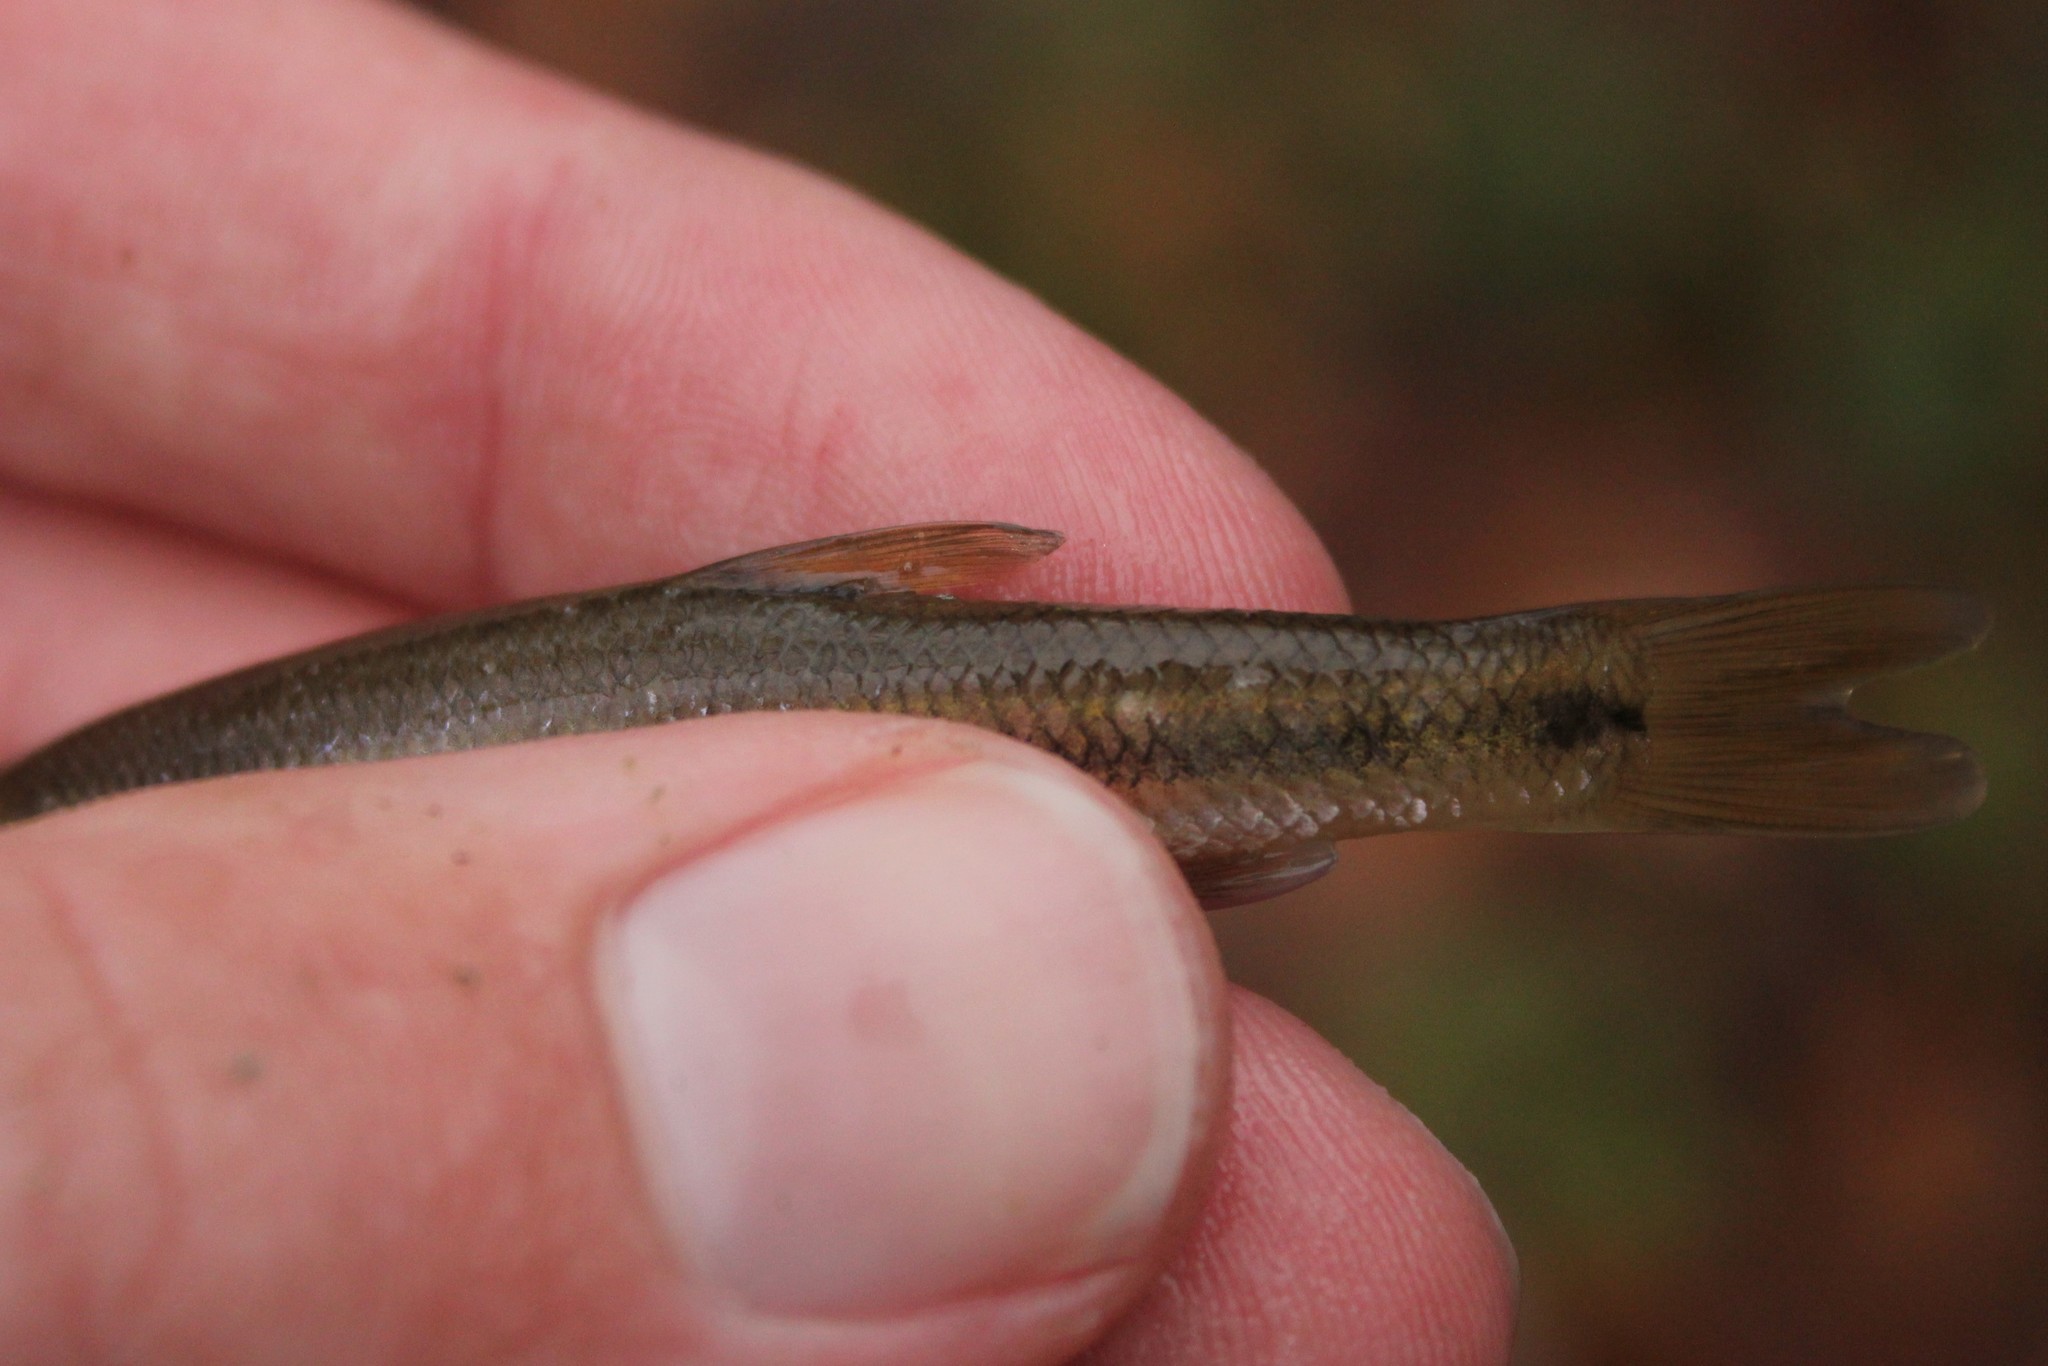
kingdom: Animalia
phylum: Chordata
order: Cypriniformes
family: Cyprinidae
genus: Semotilus
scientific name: Semotilus atromaculatus
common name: Creek chub
